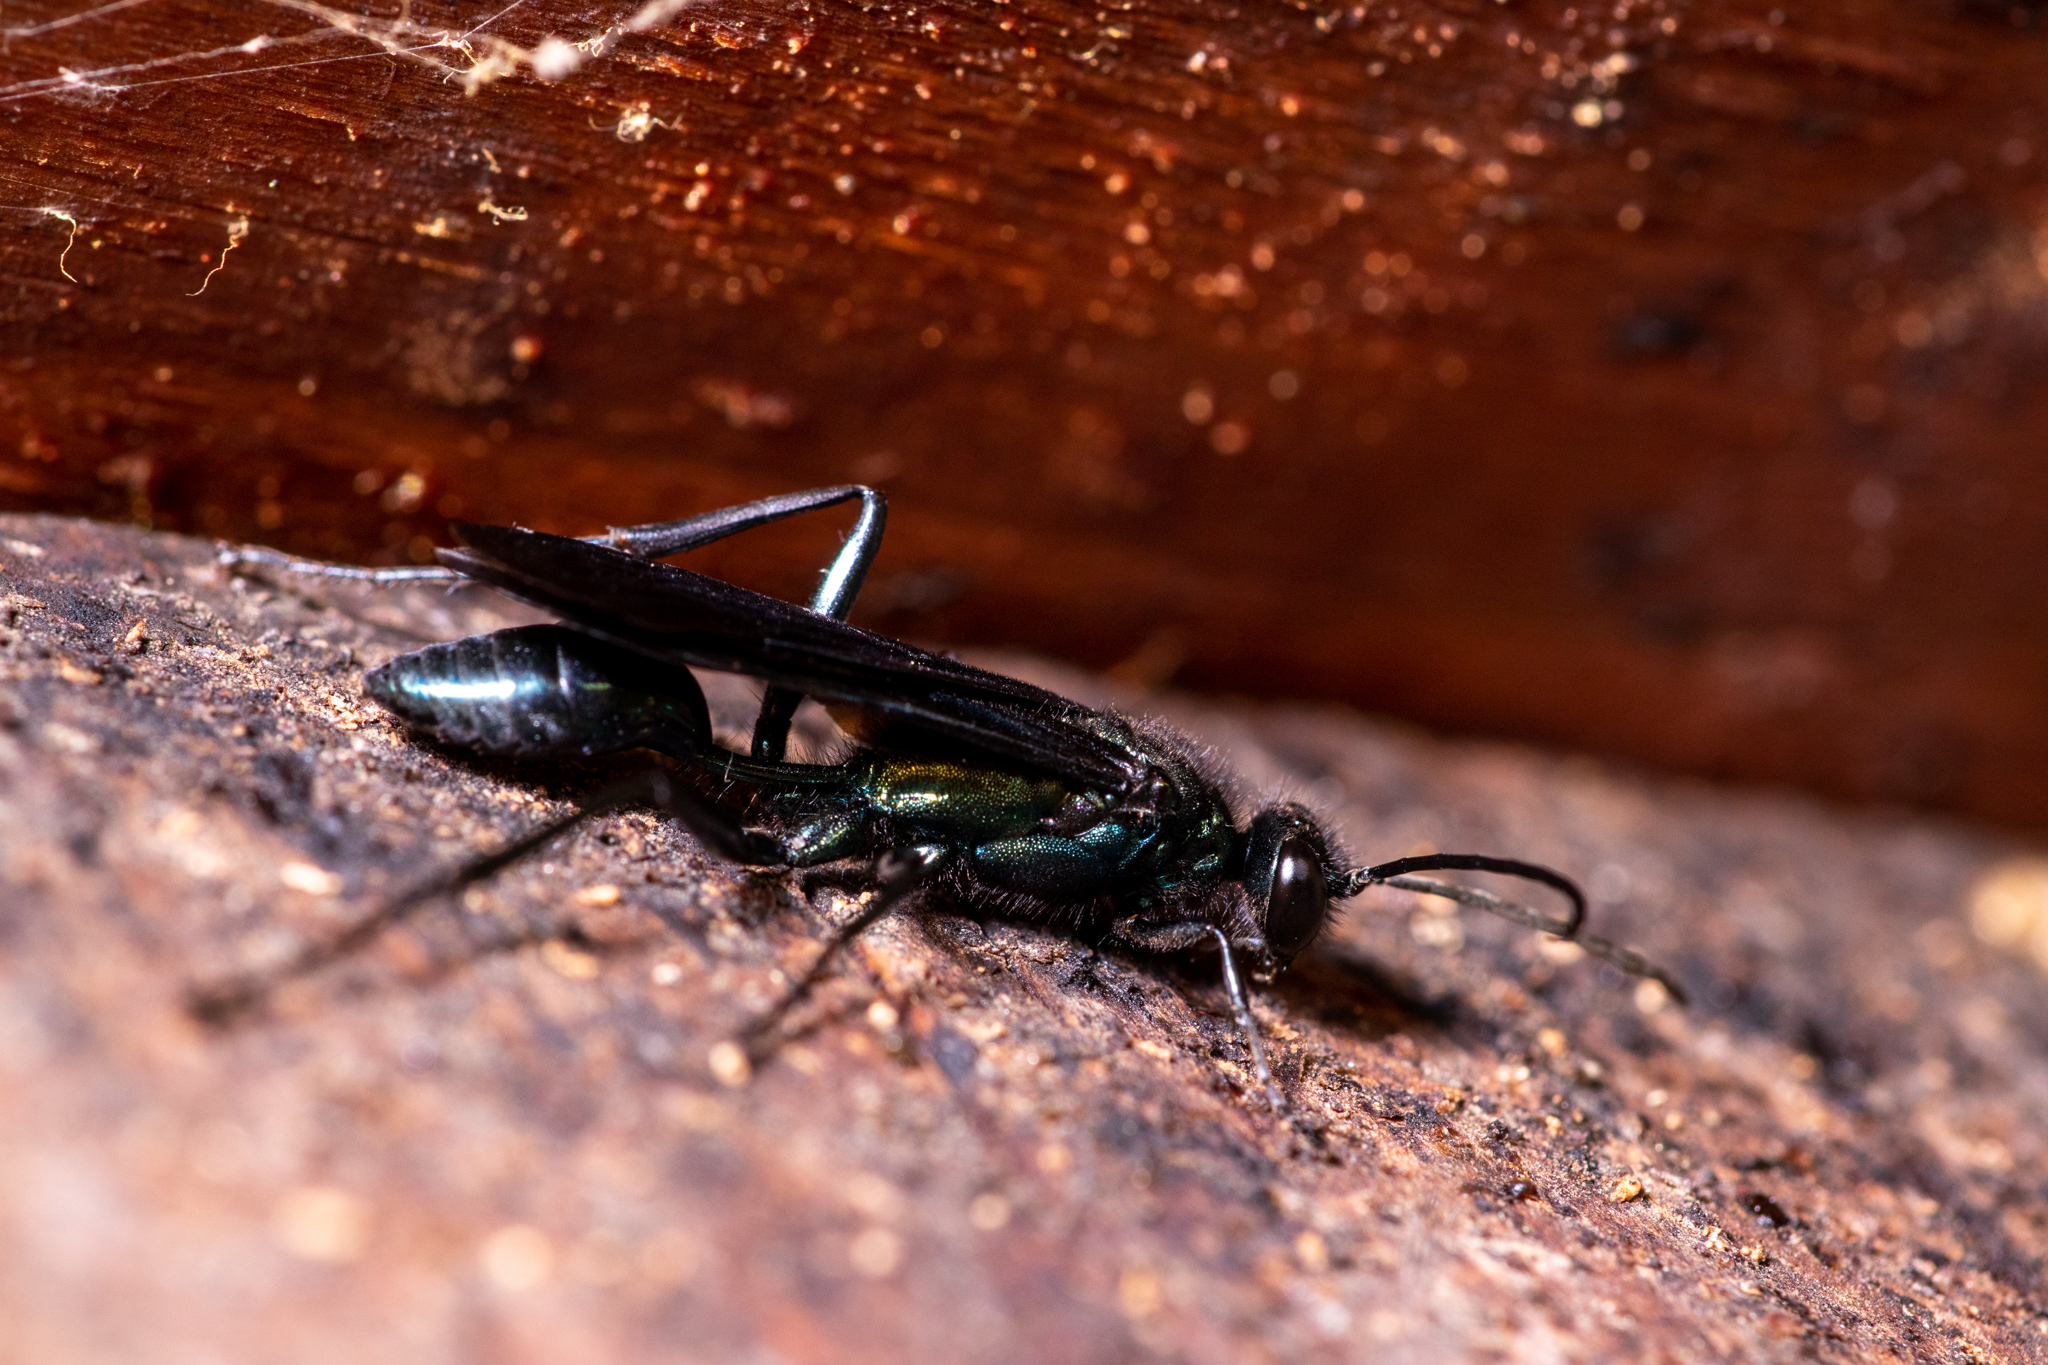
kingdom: Animalia
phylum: Arthropoda
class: Insecta
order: Hymenoptera
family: Sphecidae
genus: Chalybion
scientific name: Chalybion californicum
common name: Mud dauber
